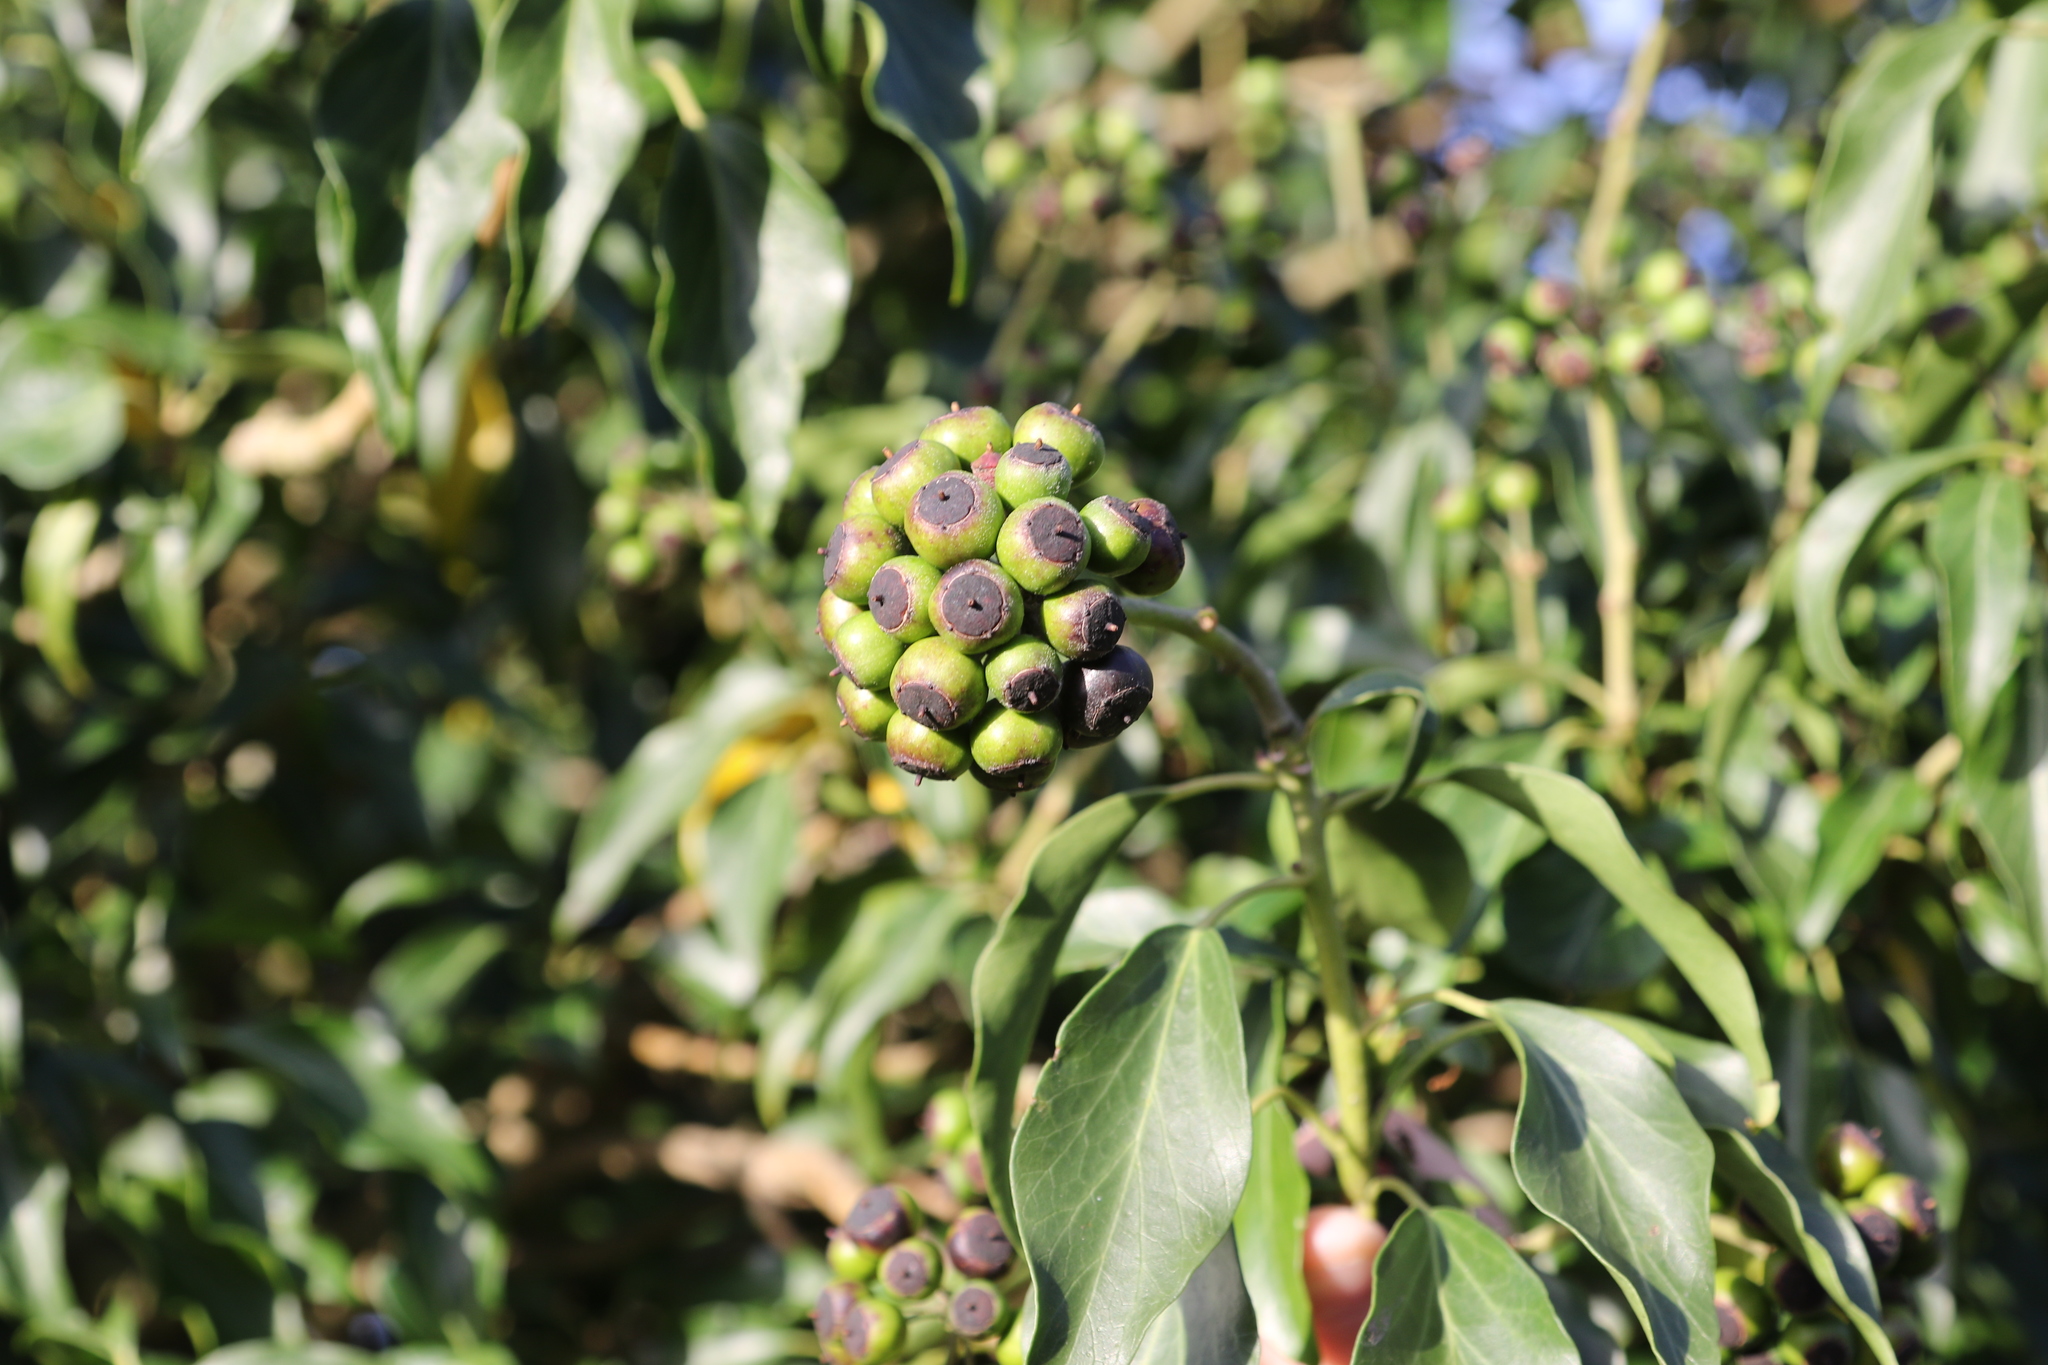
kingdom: Plantae
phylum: Tracheophyta
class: Magnoliopsida
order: Apiales
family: Araliaceae
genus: Hedera
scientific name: Hedera helix
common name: Ivy
